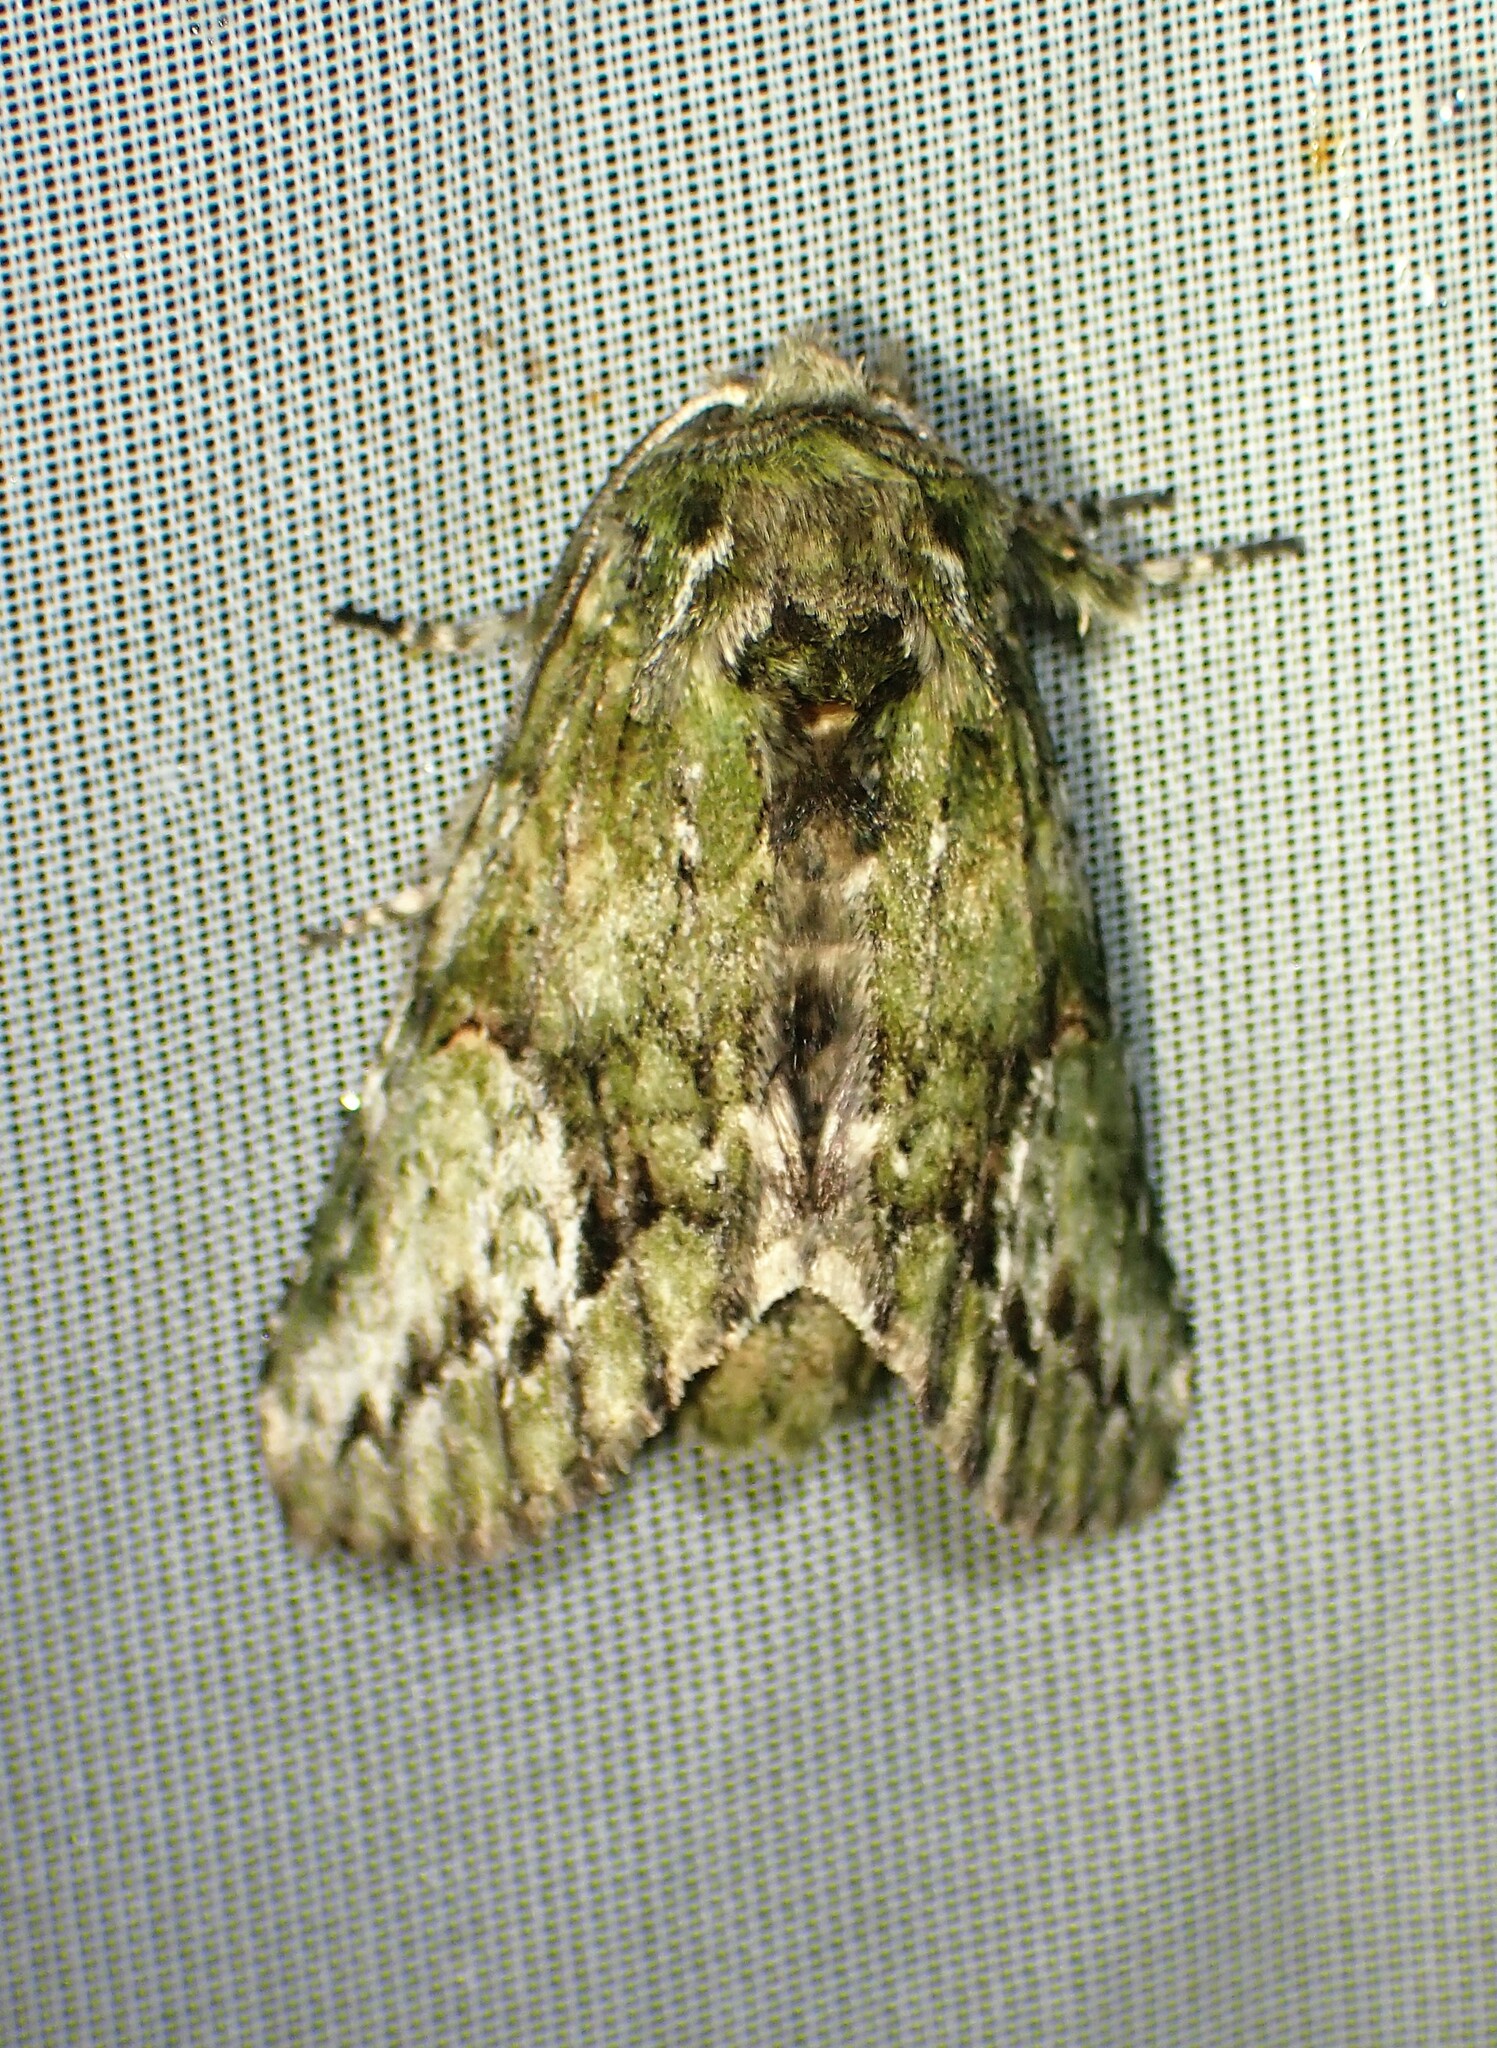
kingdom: Animalia
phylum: Arthropoda
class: Insecta
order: Lepidoptera
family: Notodontidae
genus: Heterocampa
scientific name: Heterocampa
